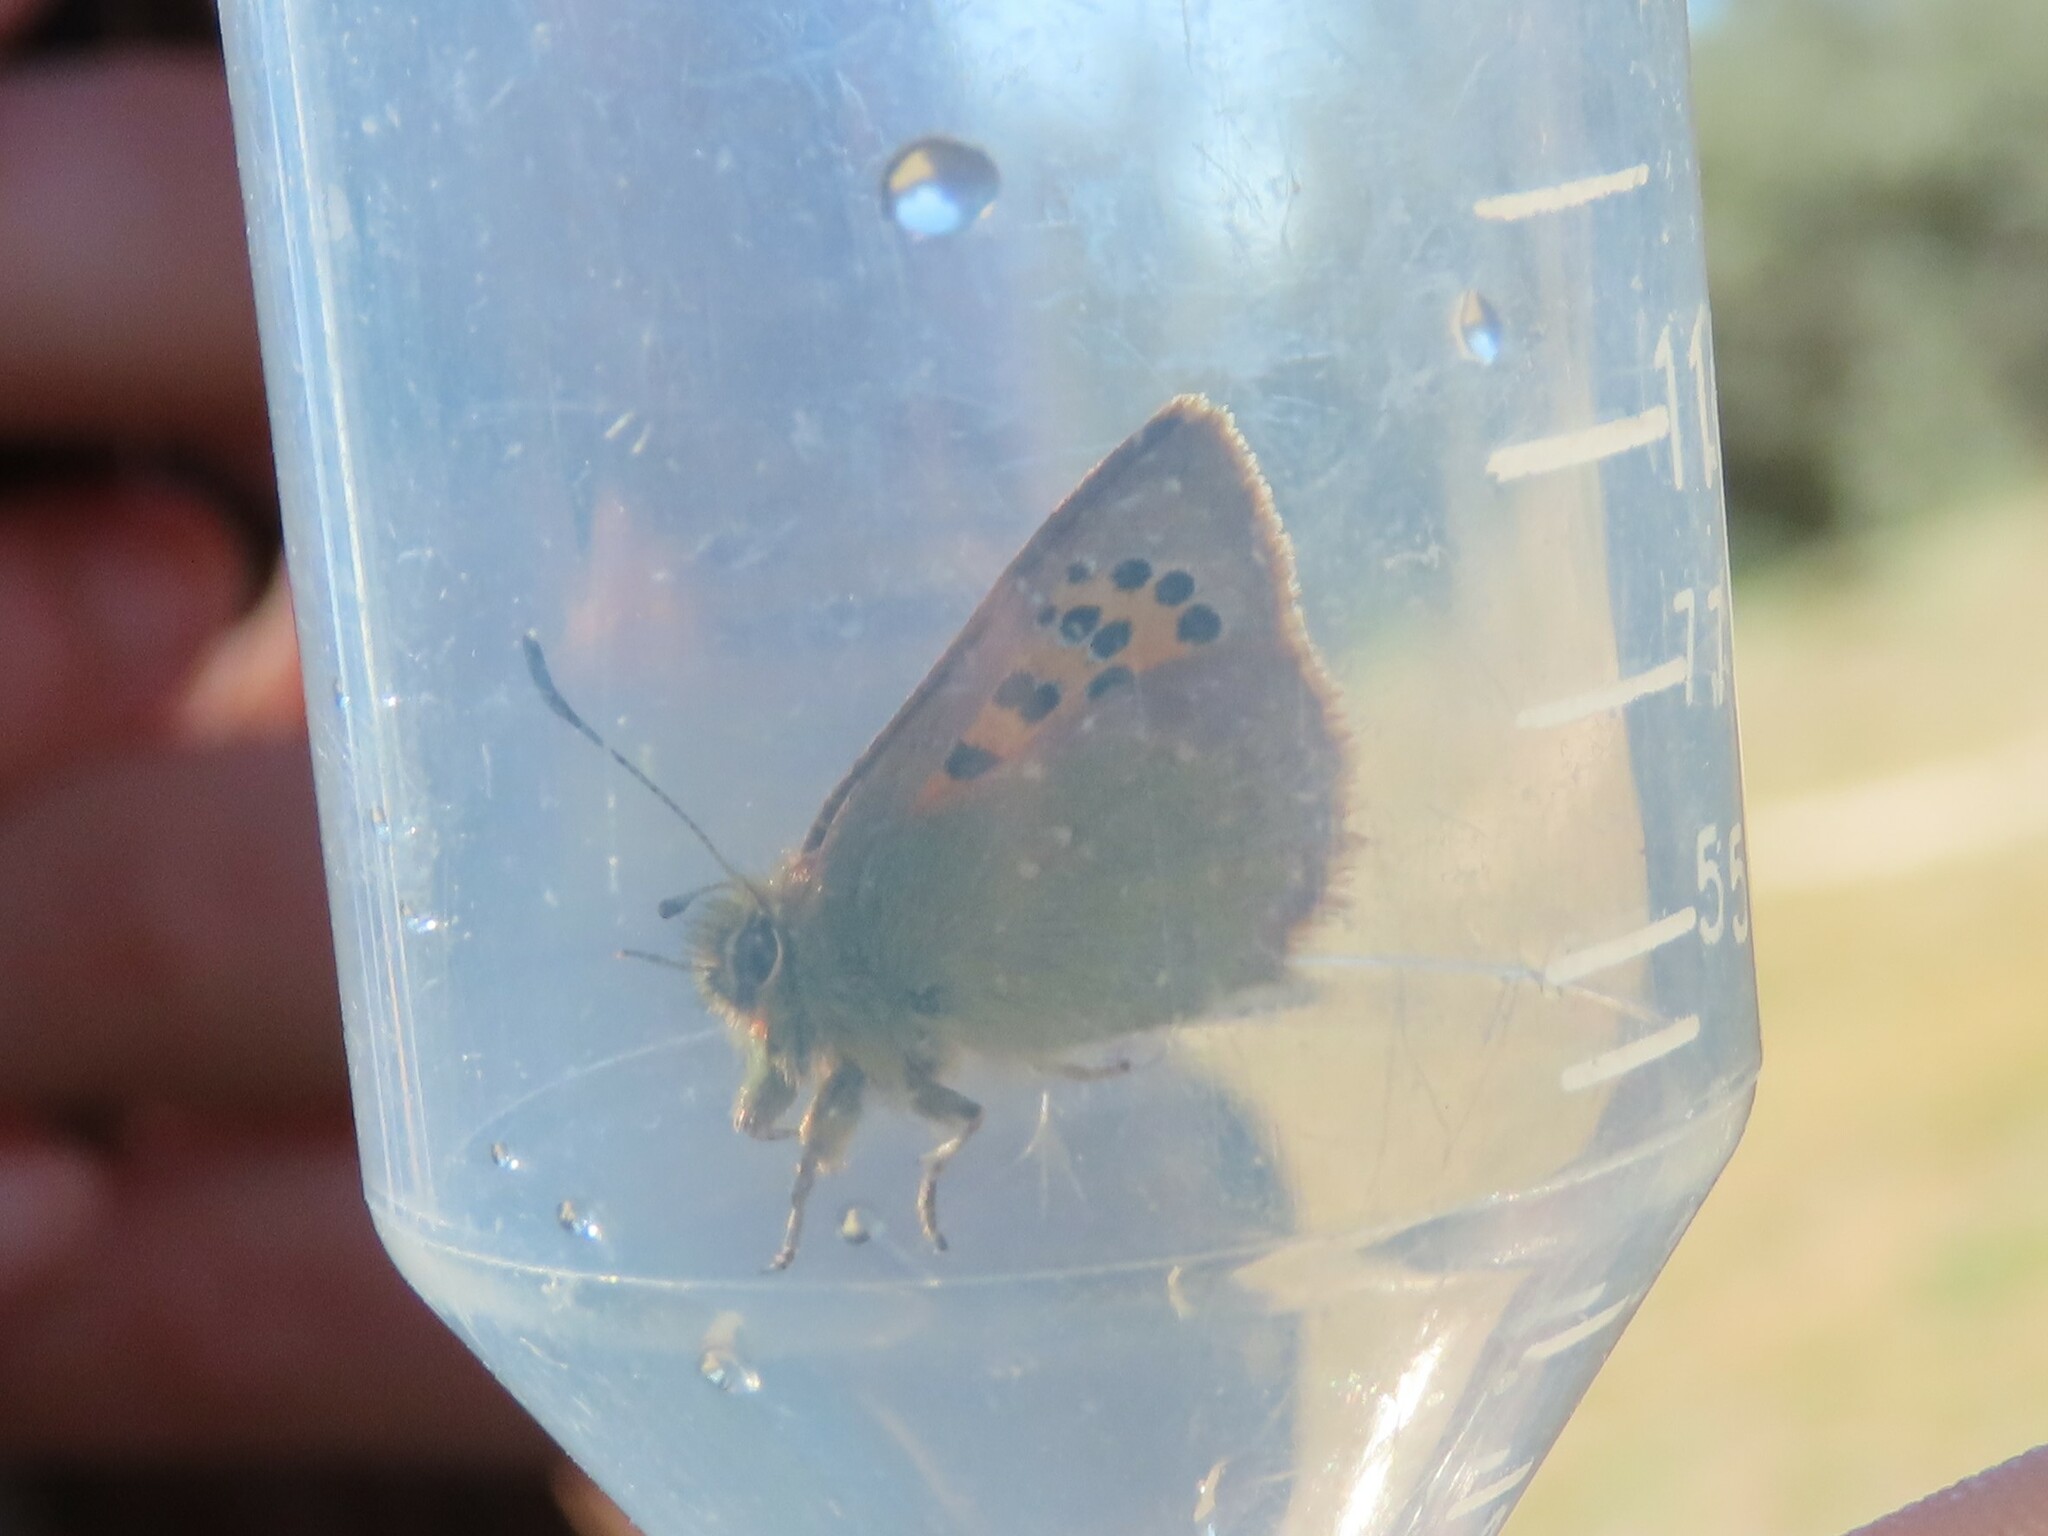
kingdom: Animalia
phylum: Arthropoda
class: Insecta
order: Lepidoptera
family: Lycaenidae
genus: Tomares
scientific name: Tomares ballus
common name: Provence hairstreak
